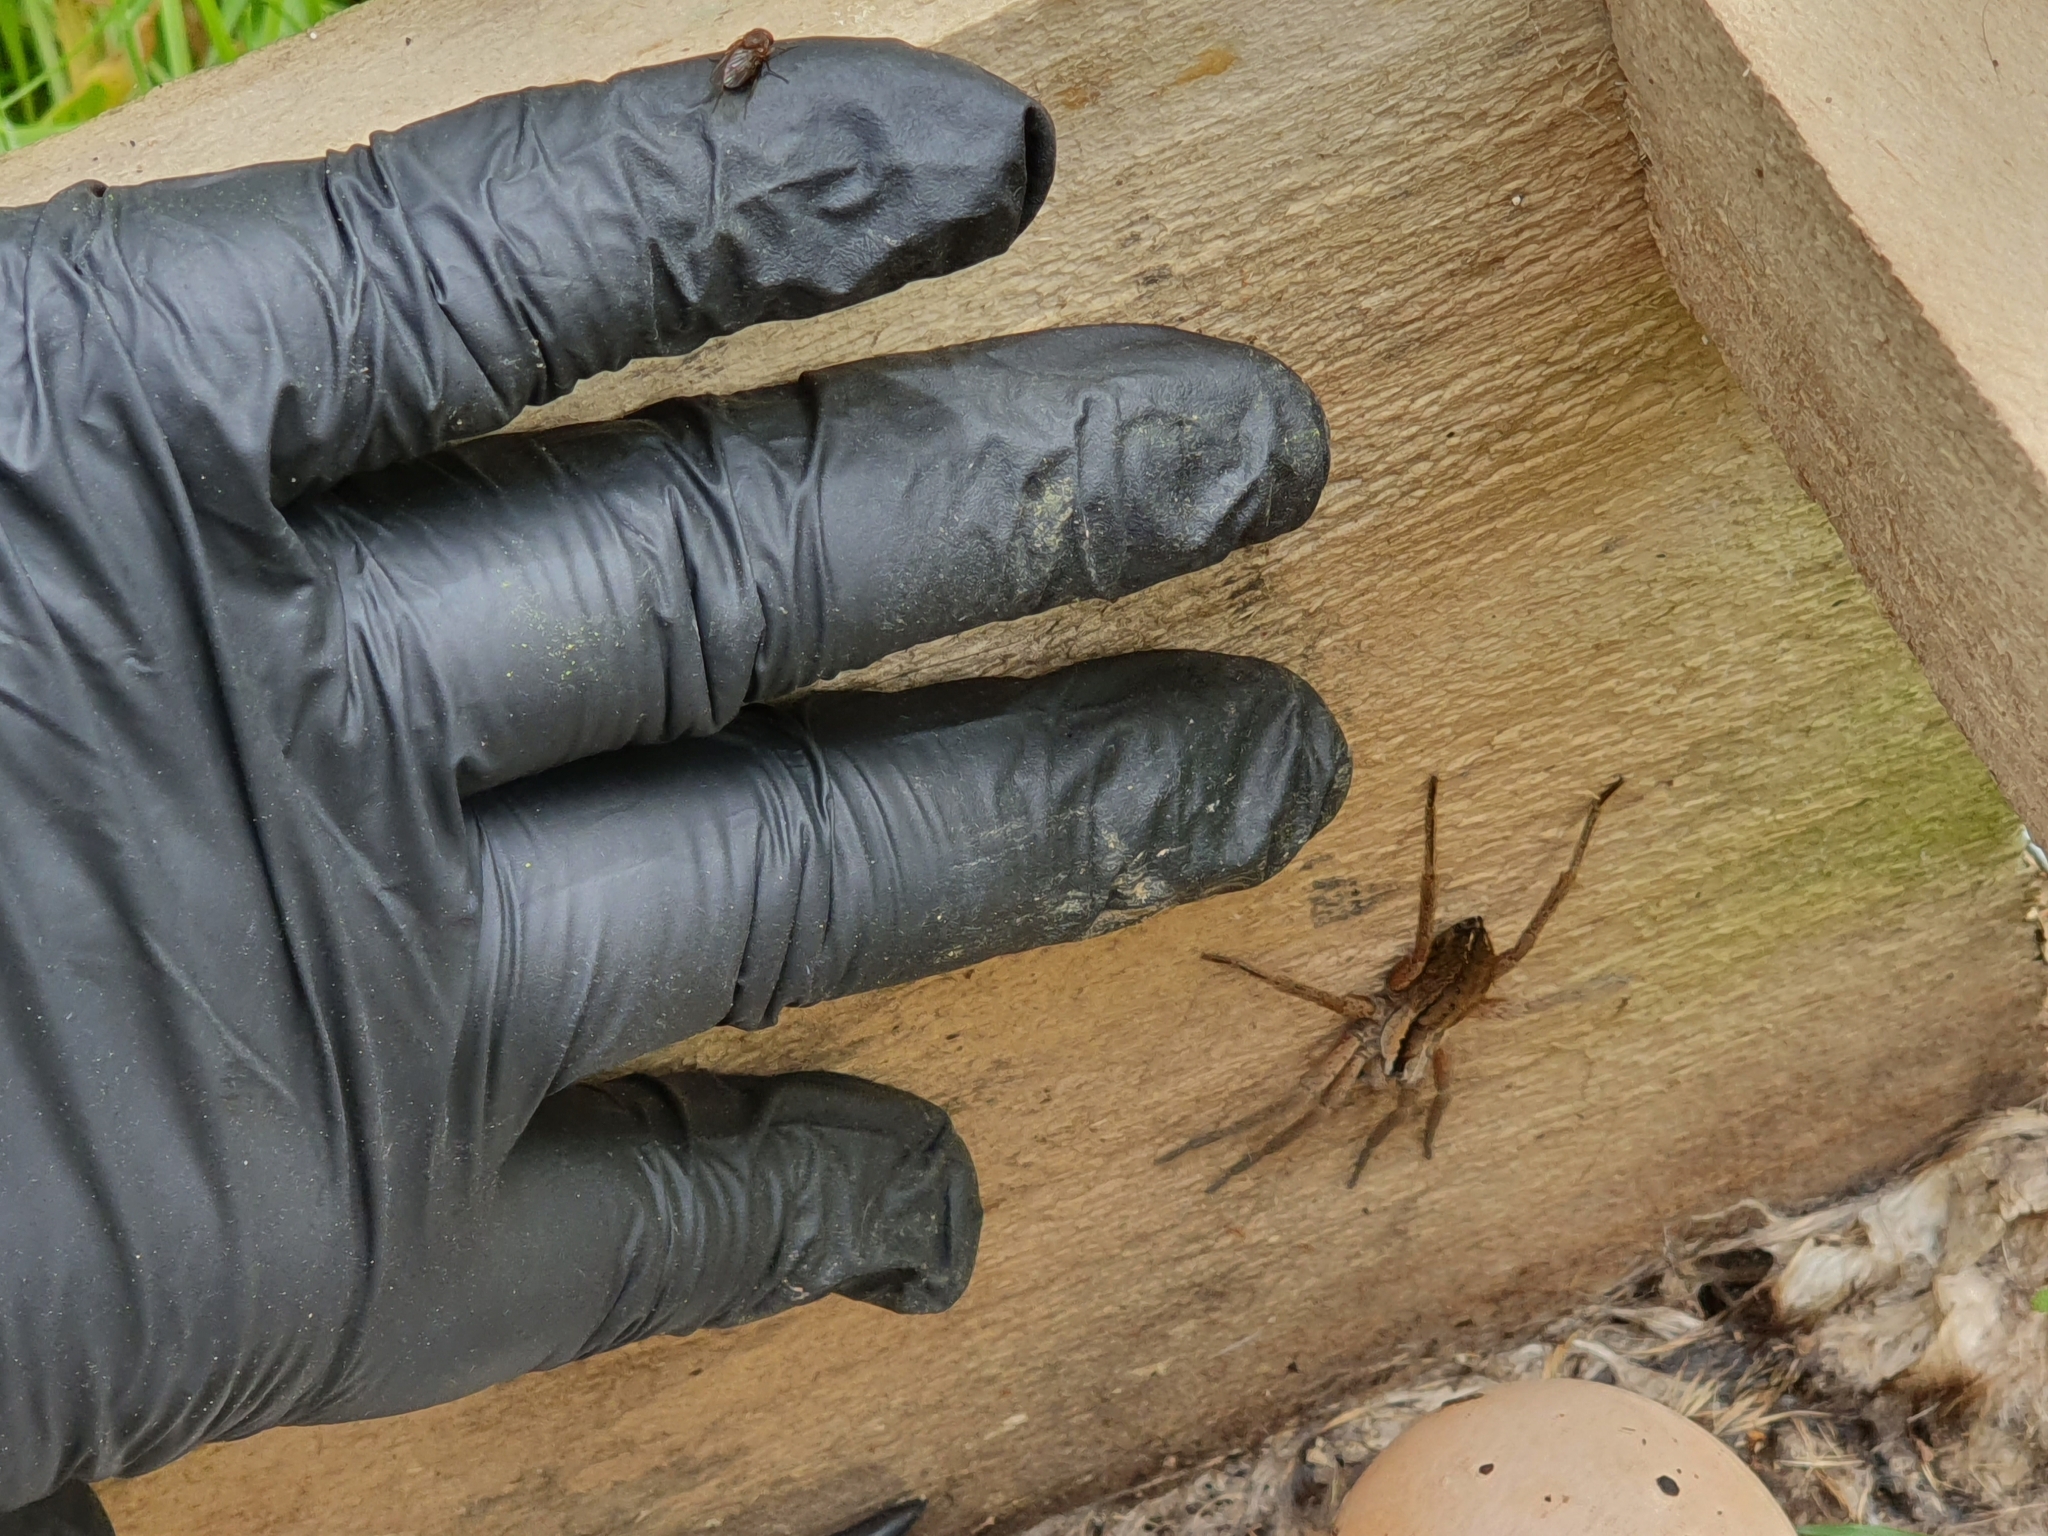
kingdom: Animalia
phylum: Arthropoda
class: Arachnida
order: Araneae
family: Pisauridae
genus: Dolomedes
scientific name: Dolomedes minor
